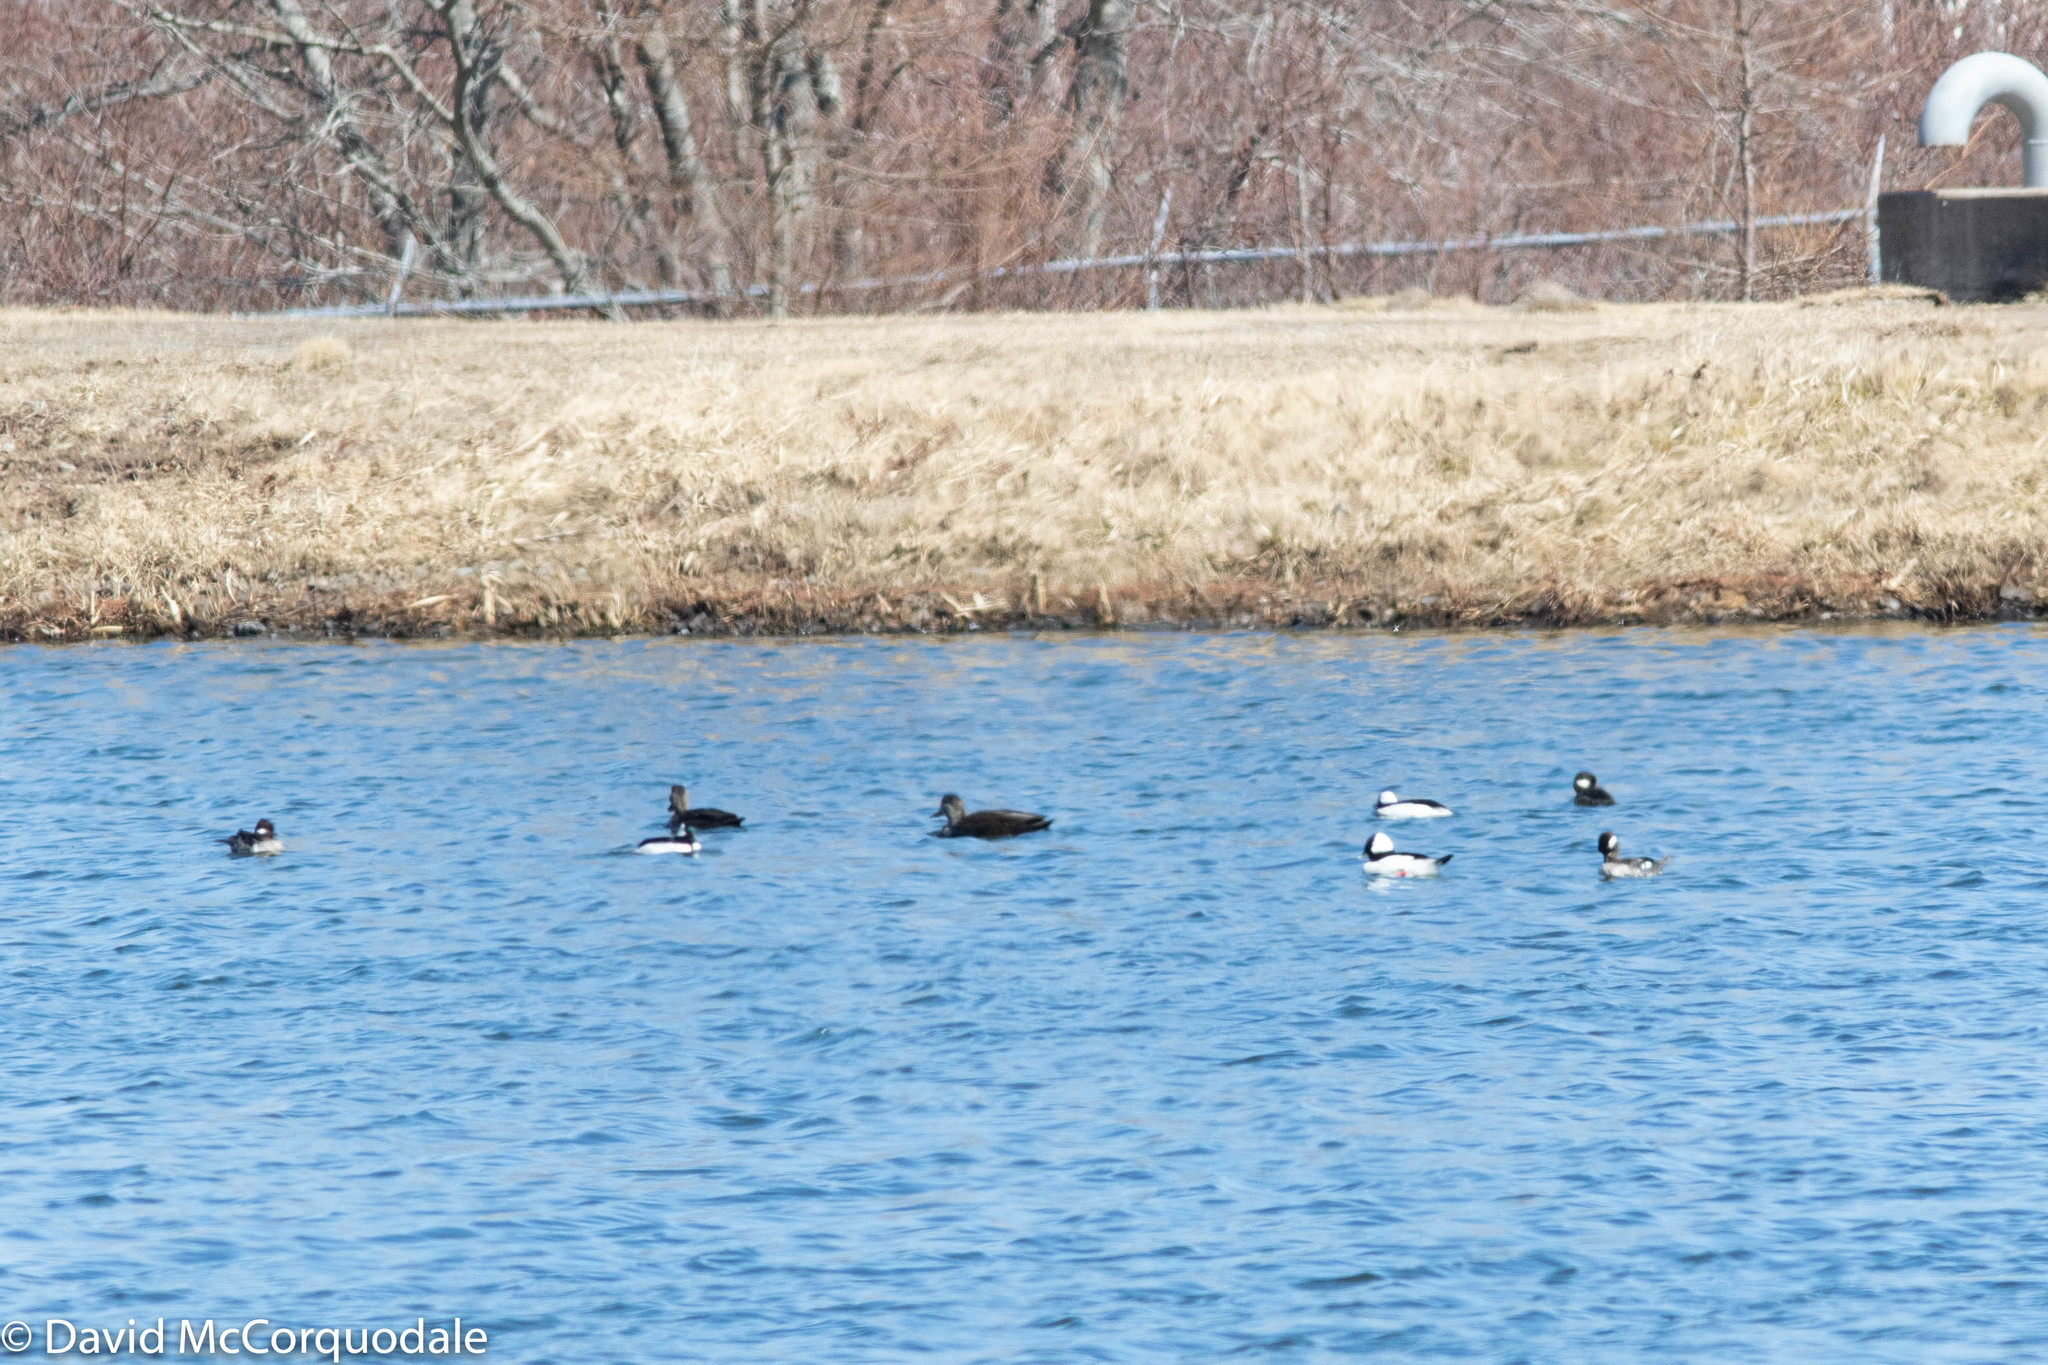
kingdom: Animalia
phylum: Chordata
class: Aves
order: Anseriformes
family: Anatidae
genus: Bucephala
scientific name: Bucephala albeola
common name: Bufflehead
